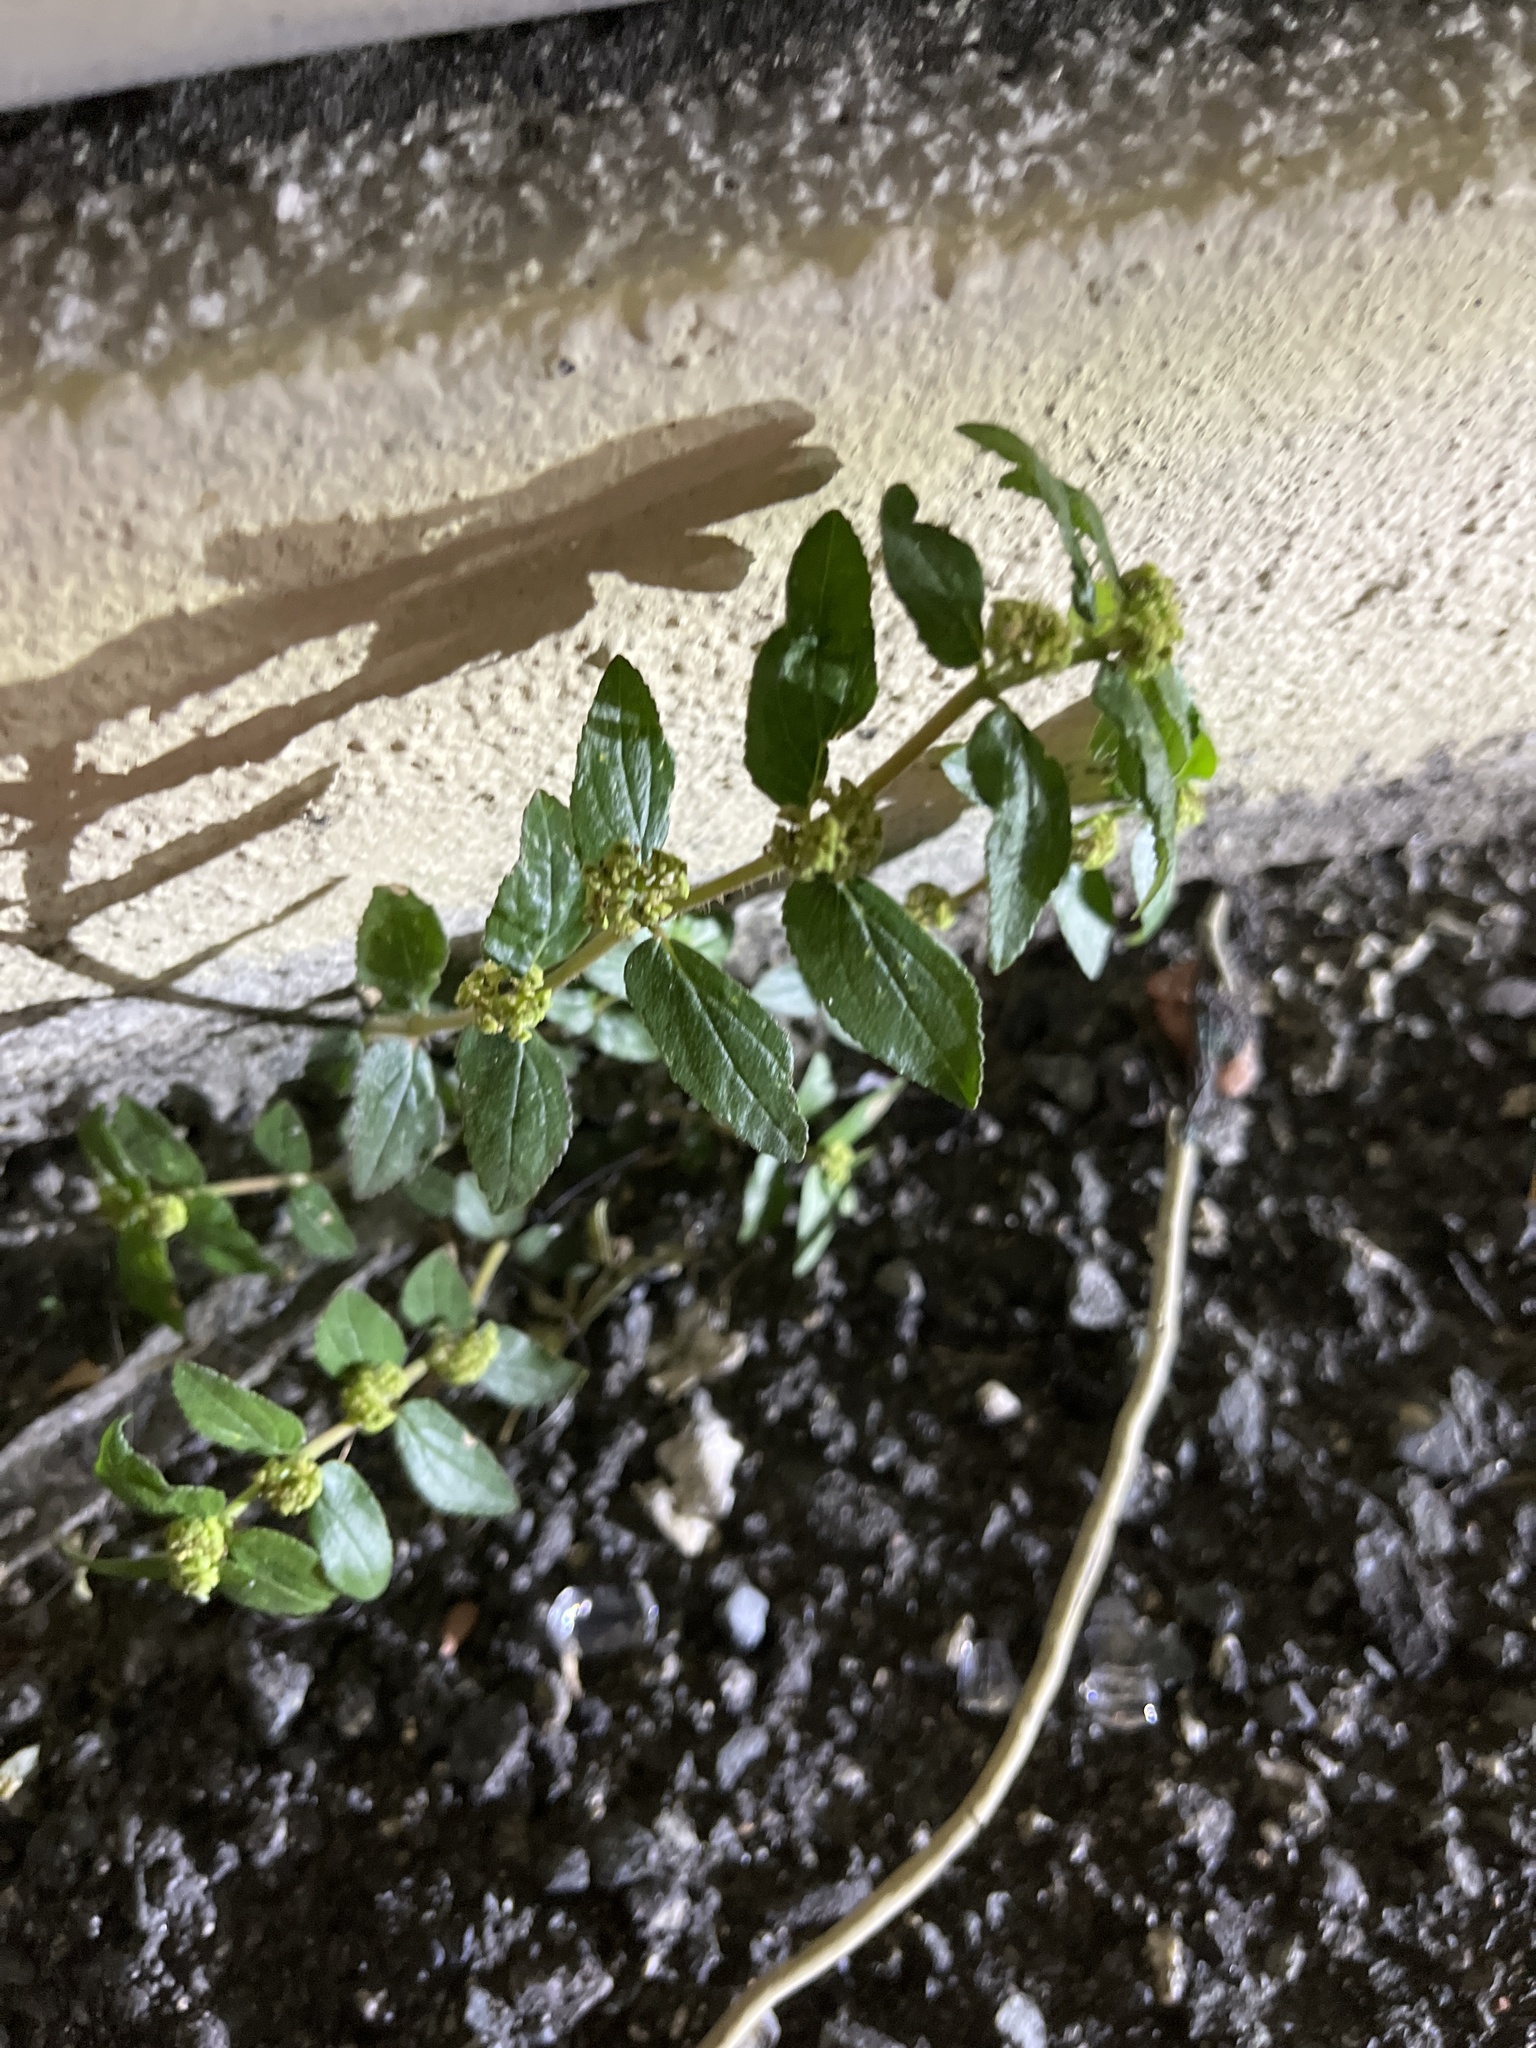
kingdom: Plantae
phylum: Tracheophyta
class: Magnoliopsida
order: Malpighiales
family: Euphorbiaceae
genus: Euphorbia
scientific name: Euphorbia hirta
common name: Pillpod sandmat
